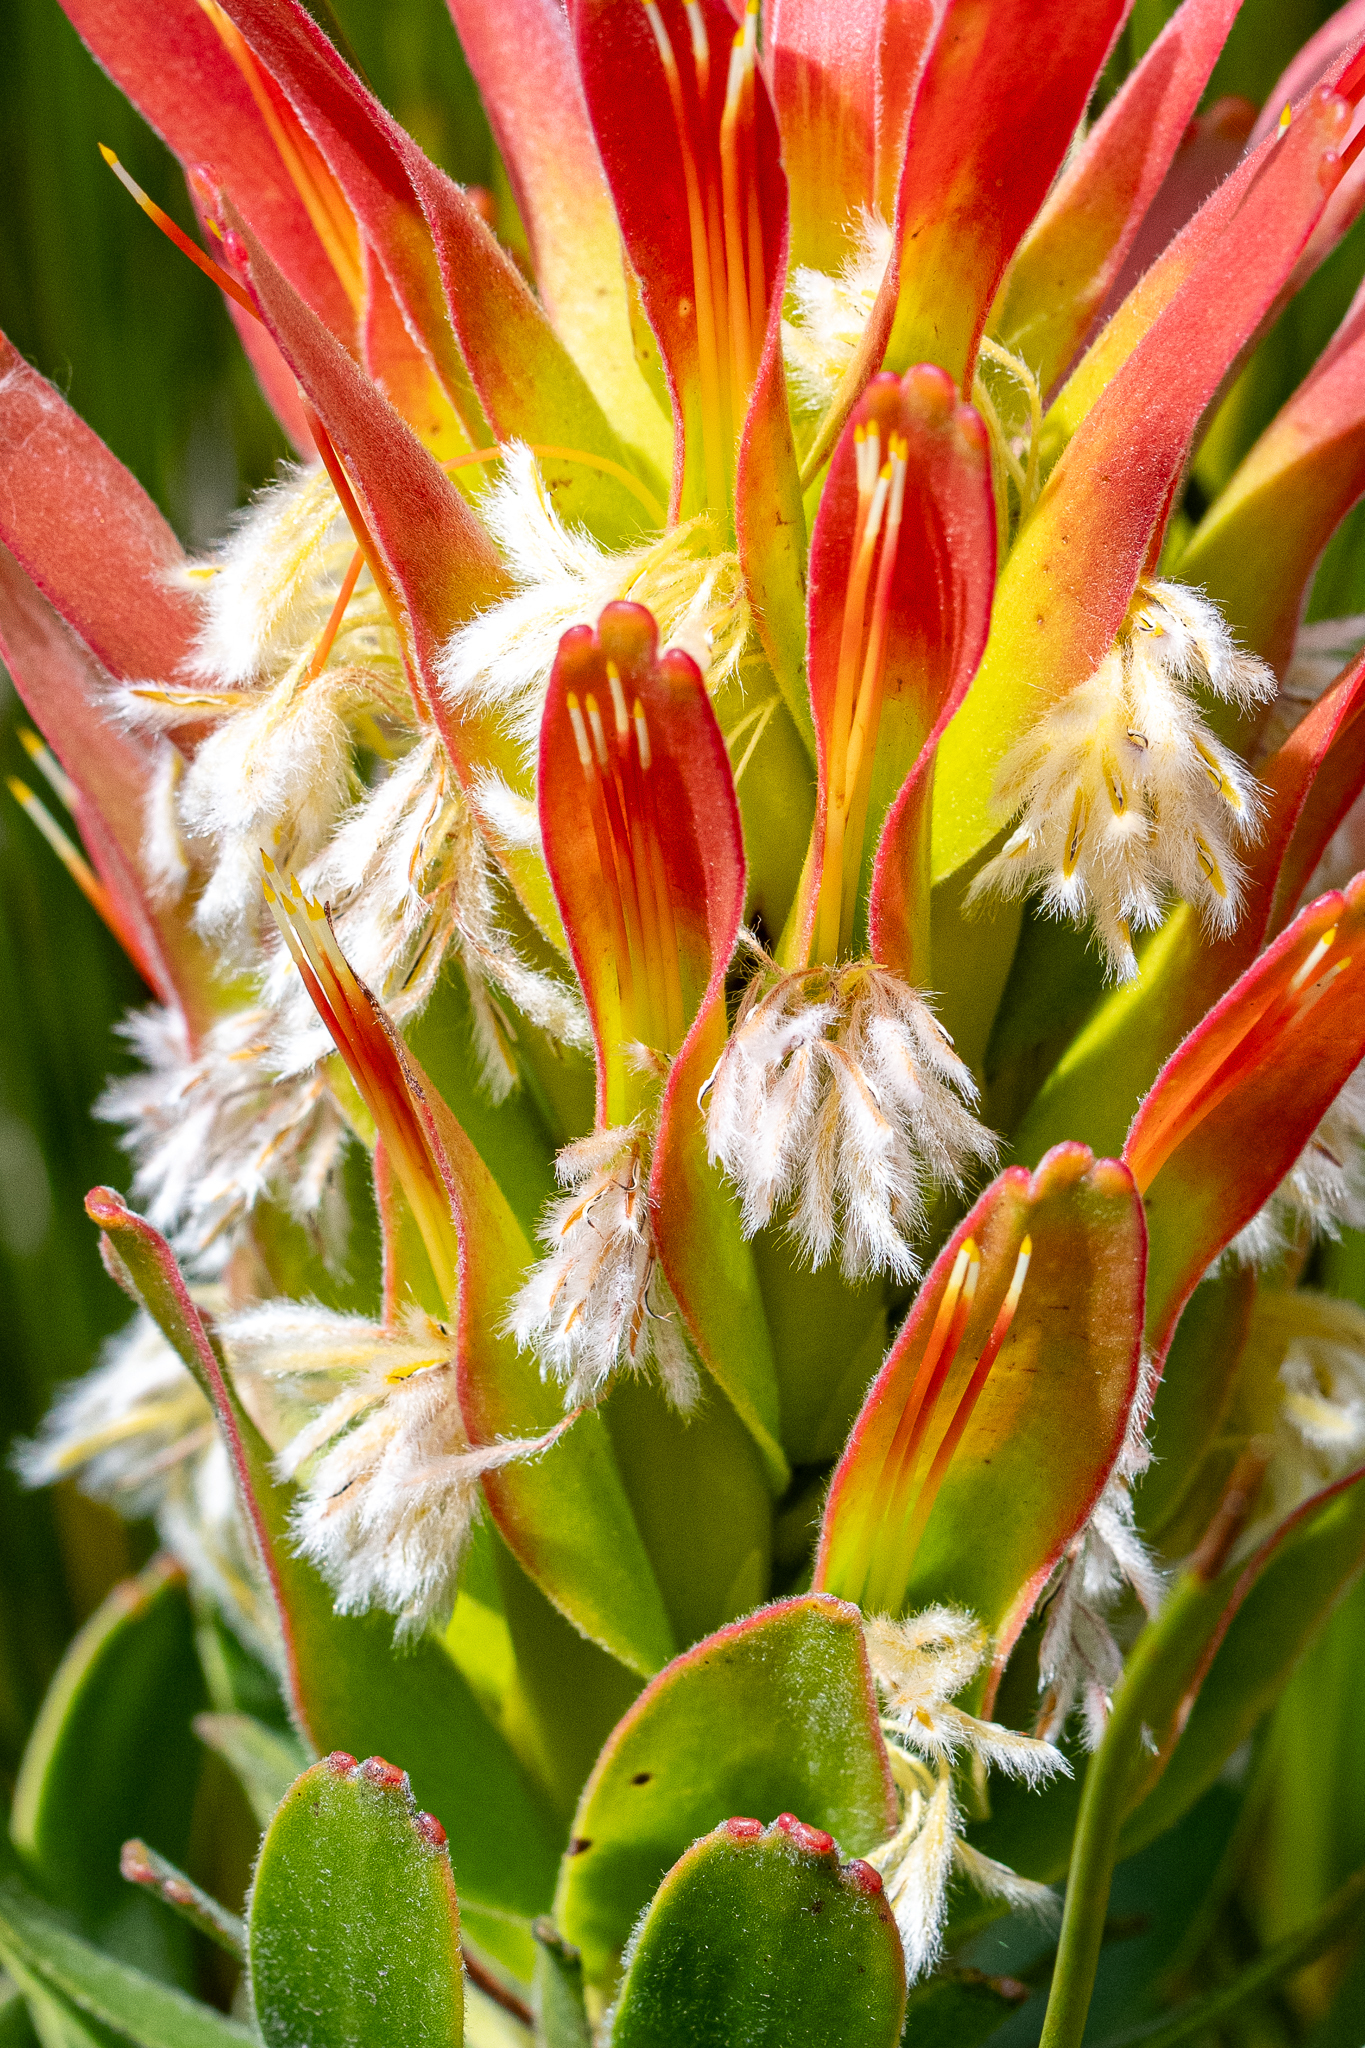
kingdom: Plantae
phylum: Tracheophyta
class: Magnoliopsida
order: Proteales
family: Proteaceae
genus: Mimetes
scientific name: Mimetes cucullatus
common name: Common pagoda
